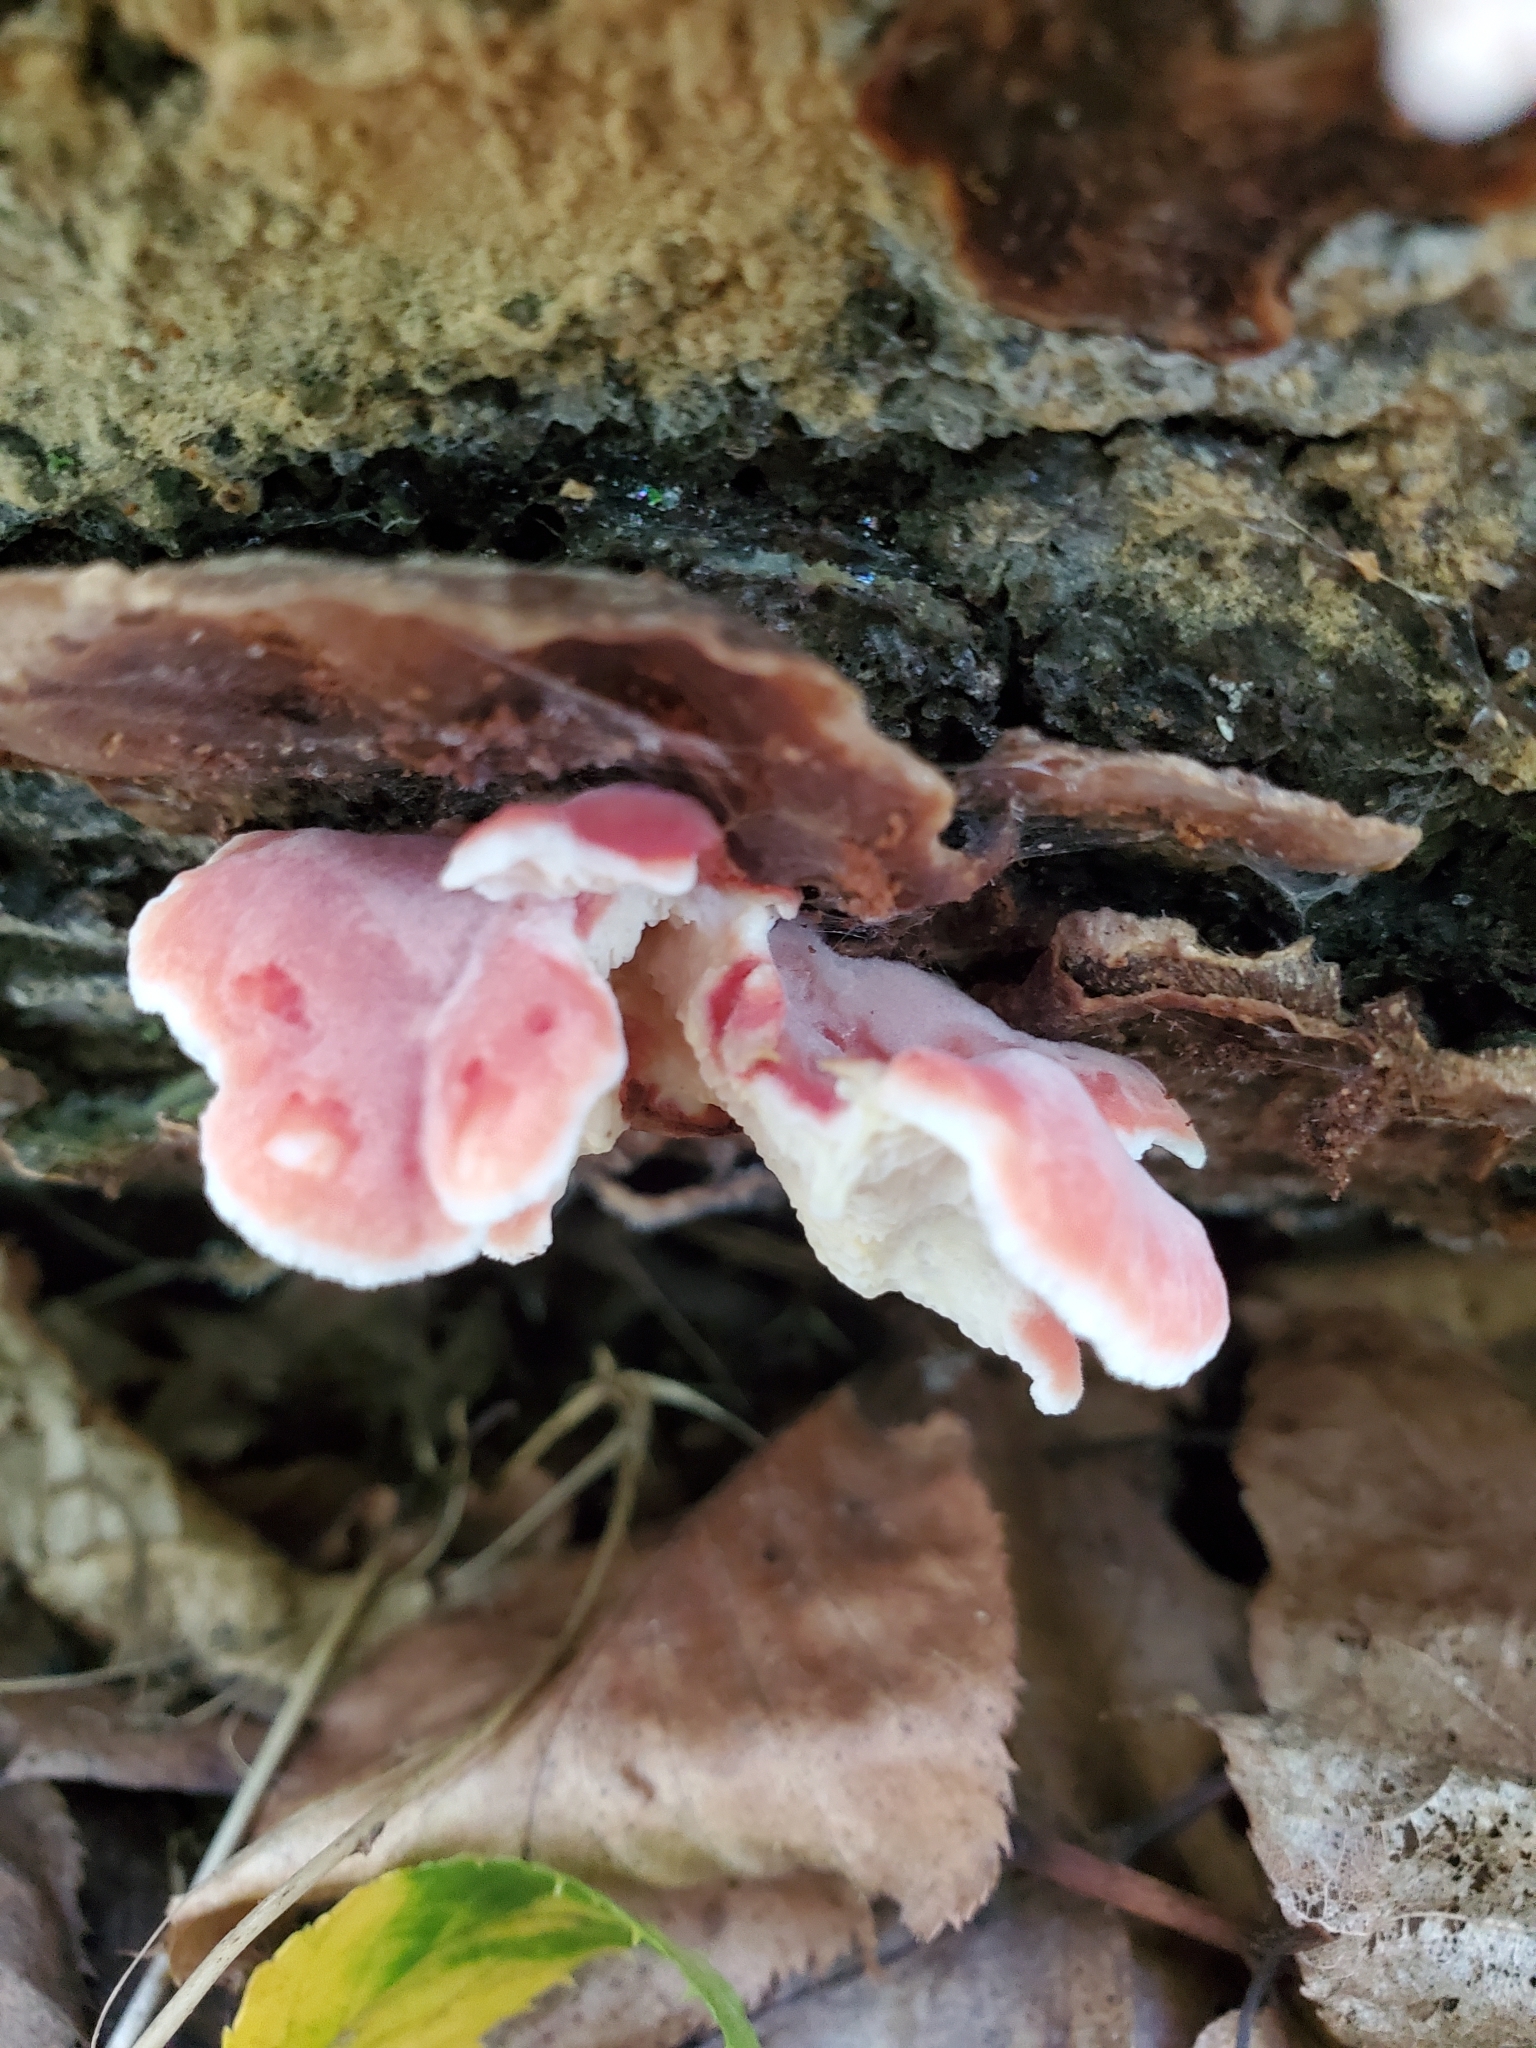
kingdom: Fungi
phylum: Basidiomycota
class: Agaricomycetes
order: Polyporales
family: Irpicaceae
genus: Byssomerulius
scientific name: Byssomerulius incarnatus
